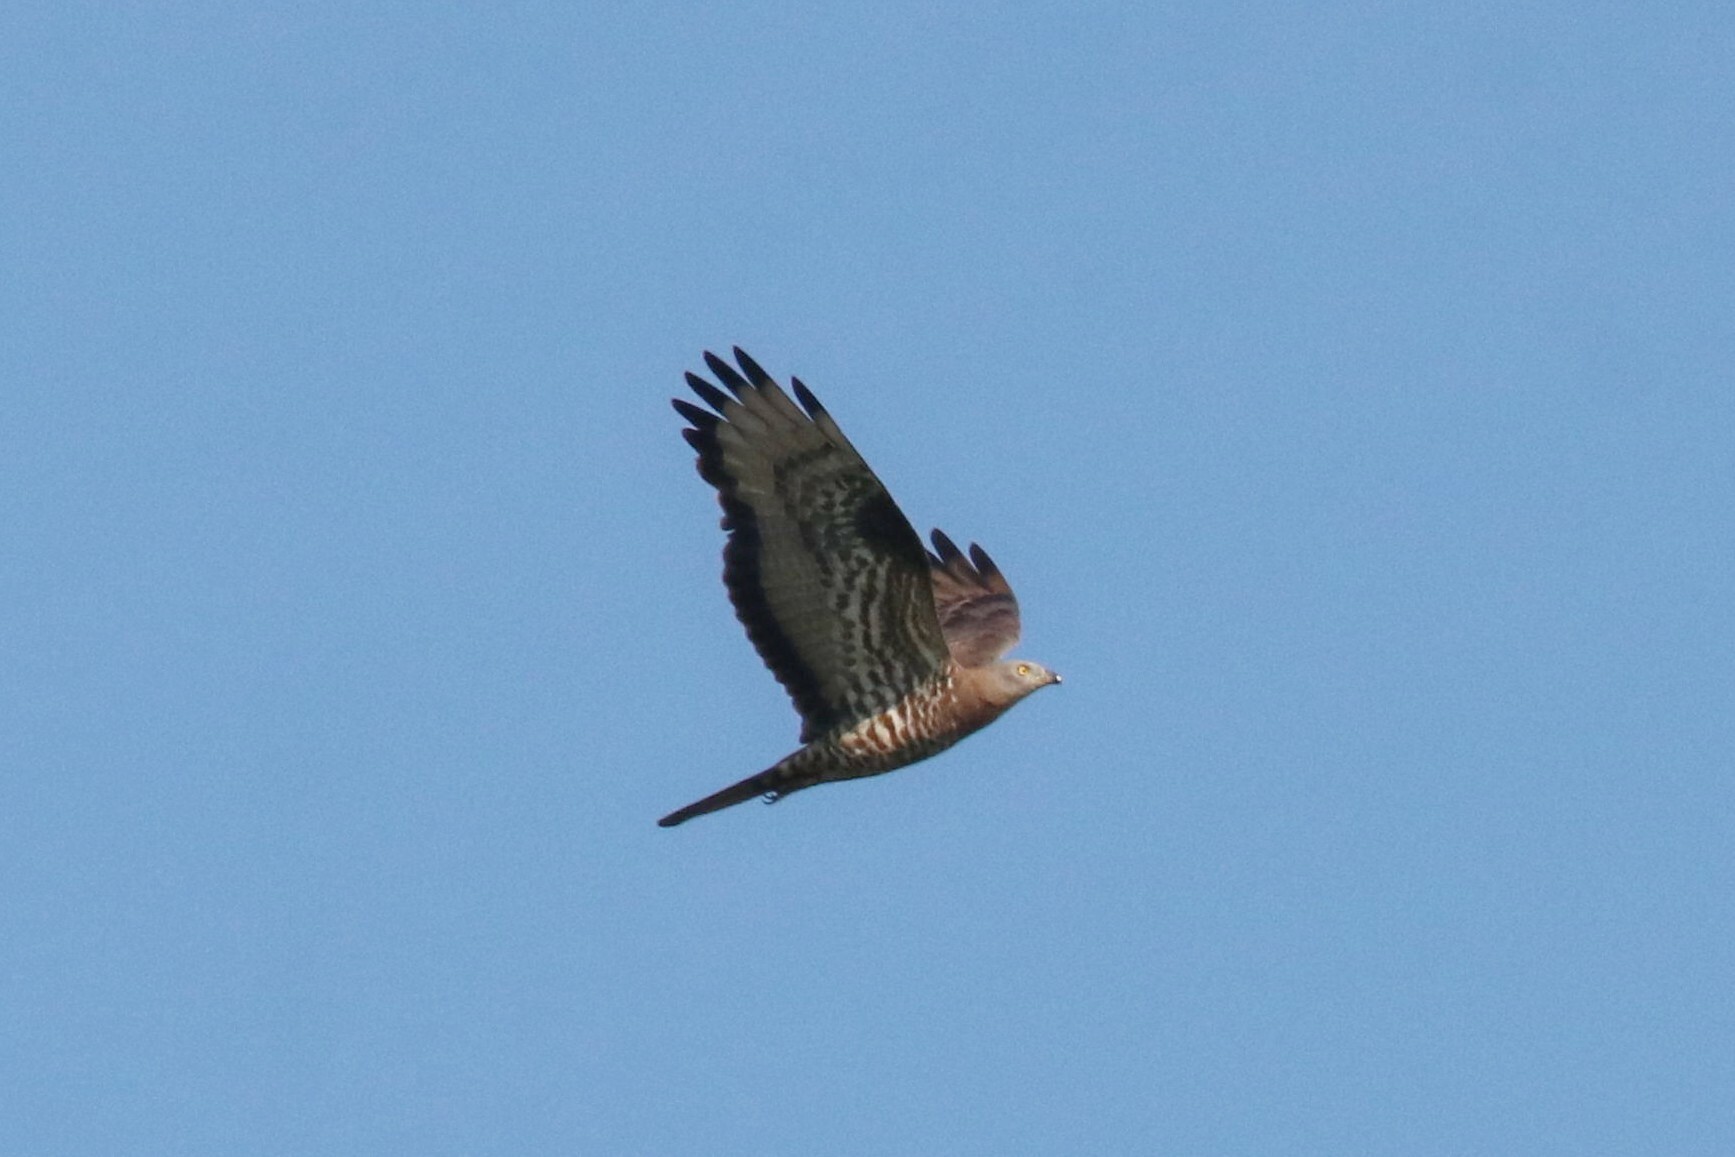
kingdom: Animalia
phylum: Chordata
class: Aves
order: Accipitriformes
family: Accipitridae
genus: Pernis
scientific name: Pernis apivorus
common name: European honey buzzard
